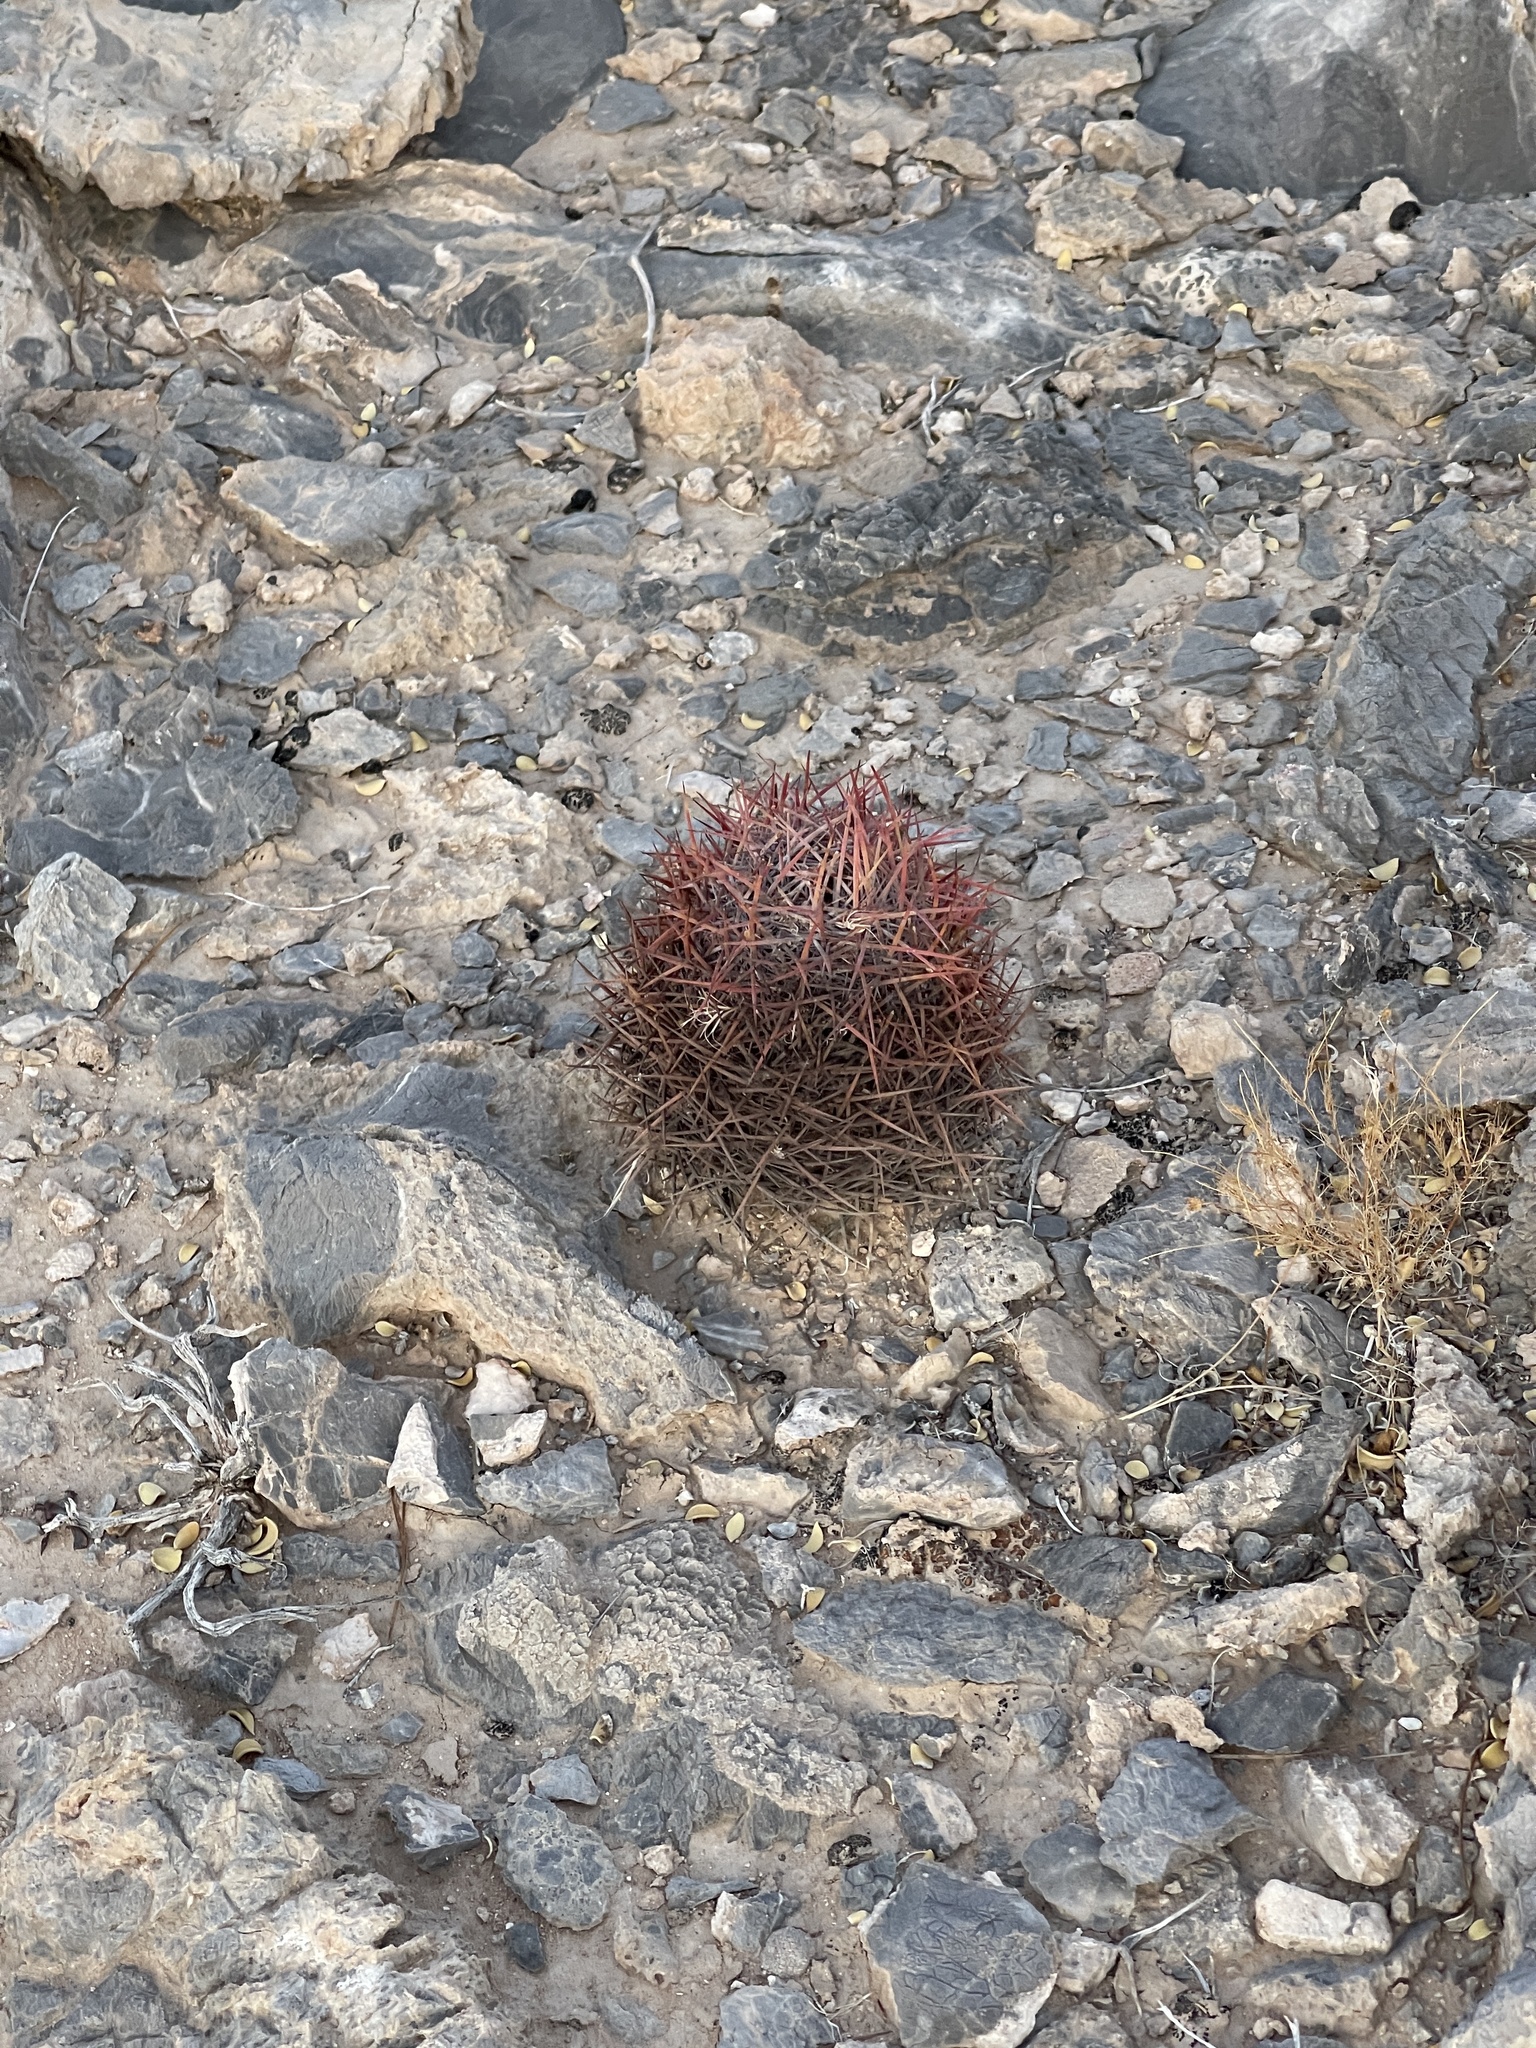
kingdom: Plantae
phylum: Tracheophyta
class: Magnoliopsida
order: Caryophyllales
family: Cactaceae
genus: Sclerocactus
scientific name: Sclerocactus johnsonii
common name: Eight-spine fishhook cactus
